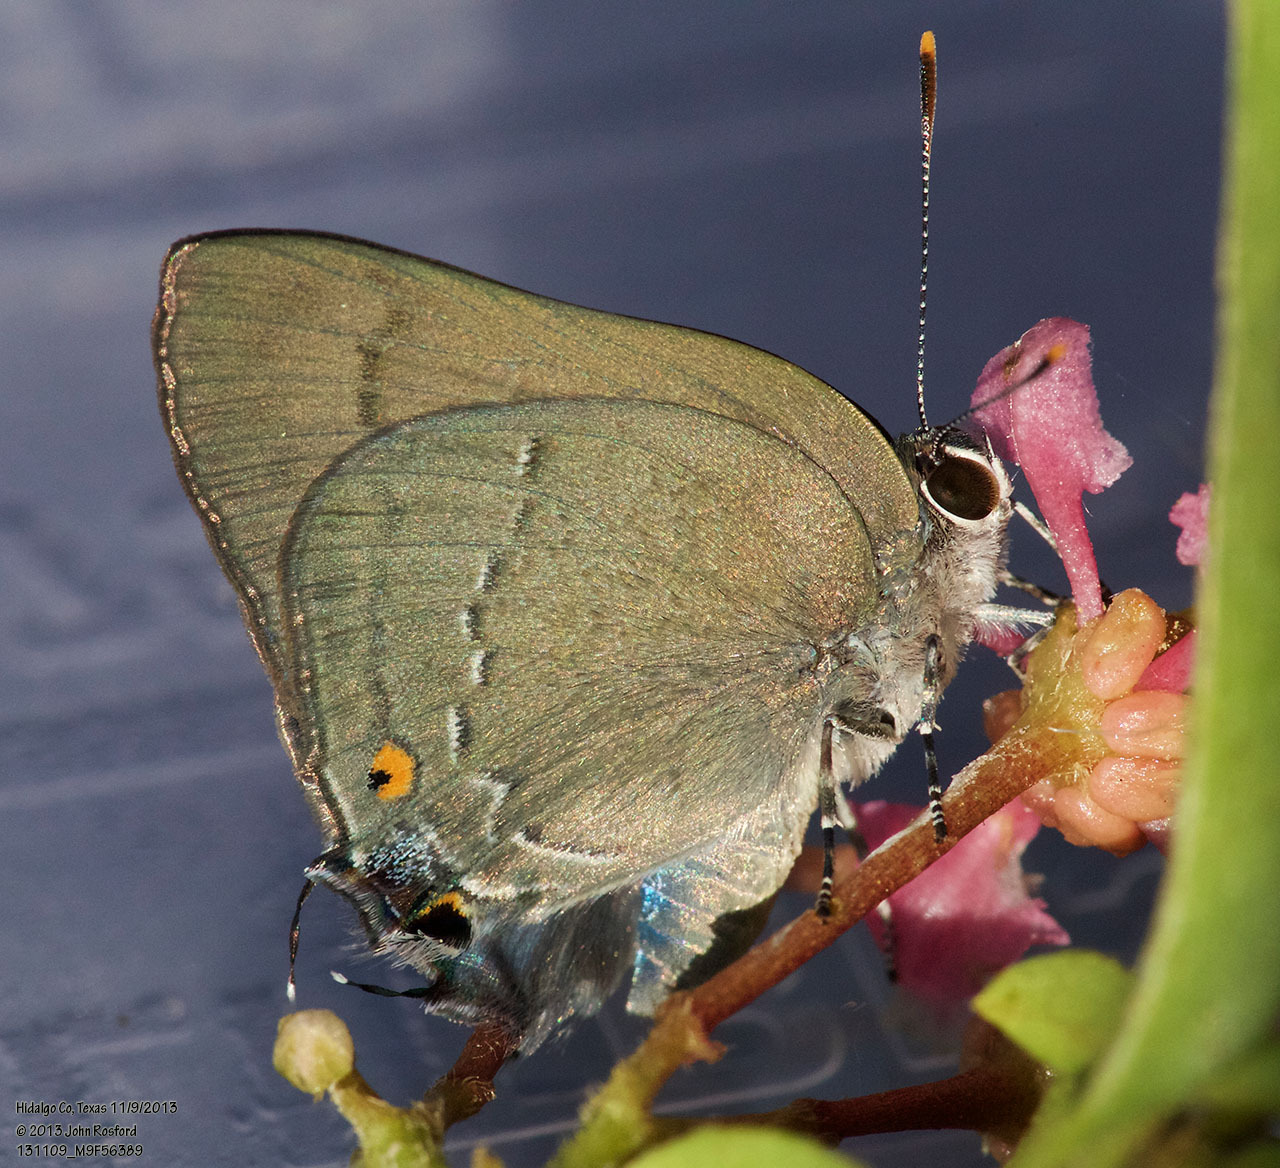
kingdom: Animalia
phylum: Arthropoda
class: Insecta
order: Lepidoptera
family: Lycaenidae
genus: Thecla
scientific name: Thecla strophius
